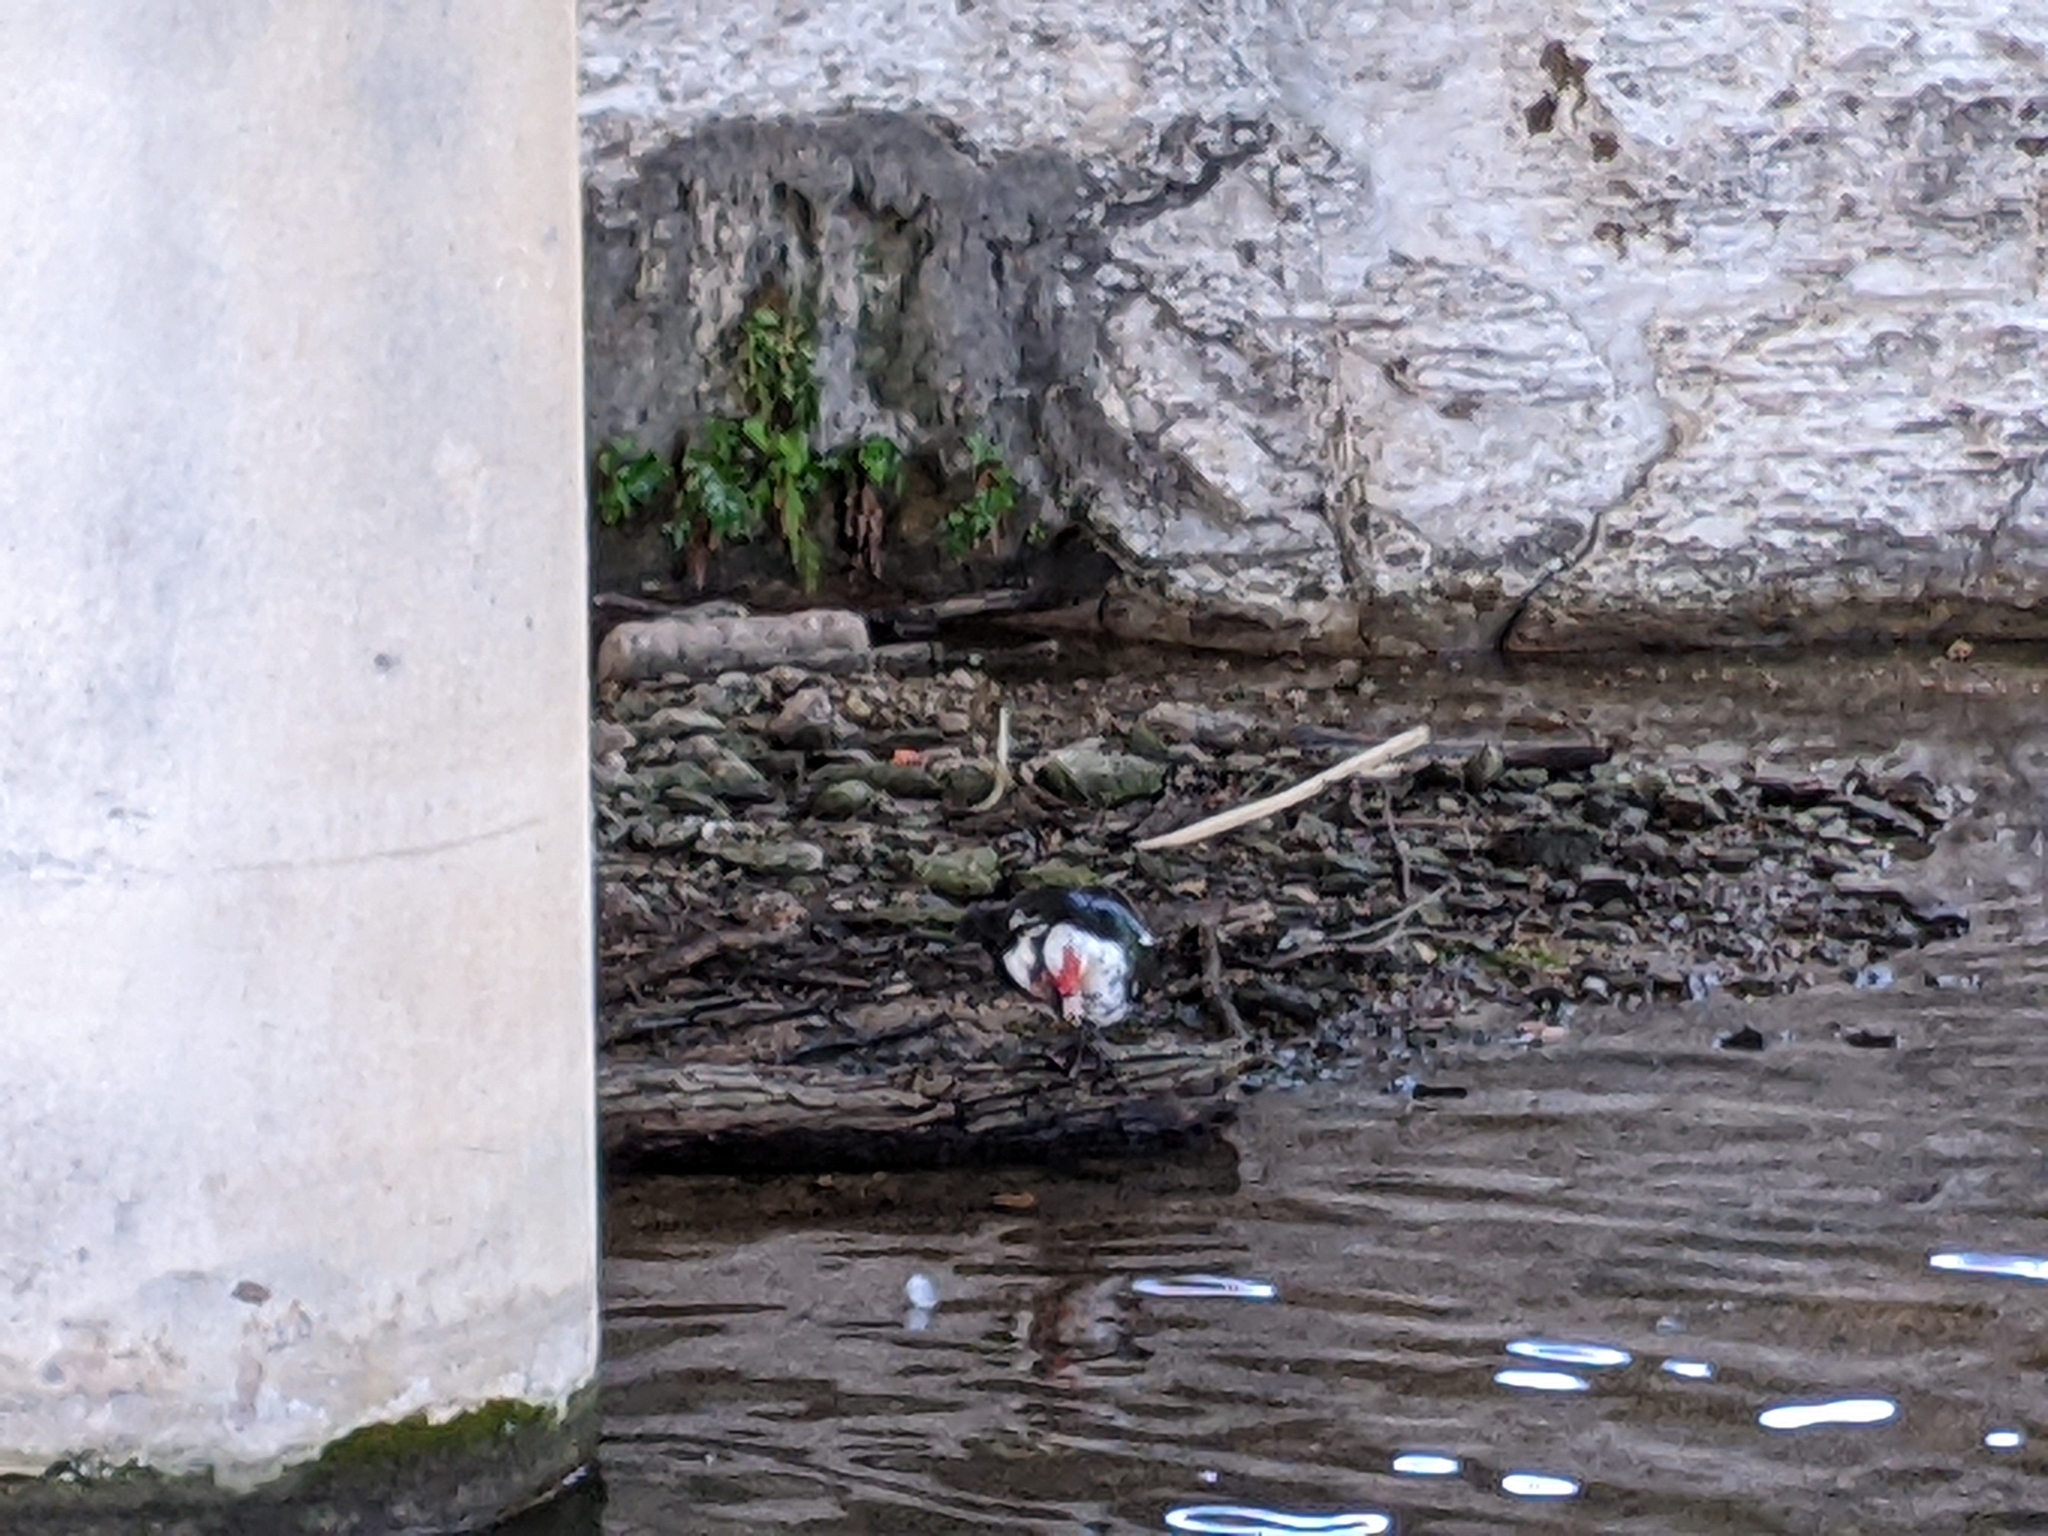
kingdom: Animalia
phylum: Chordata
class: Aves
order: Anseriformes
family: Anatidae
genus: Cairina
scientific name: Cairina moschata
